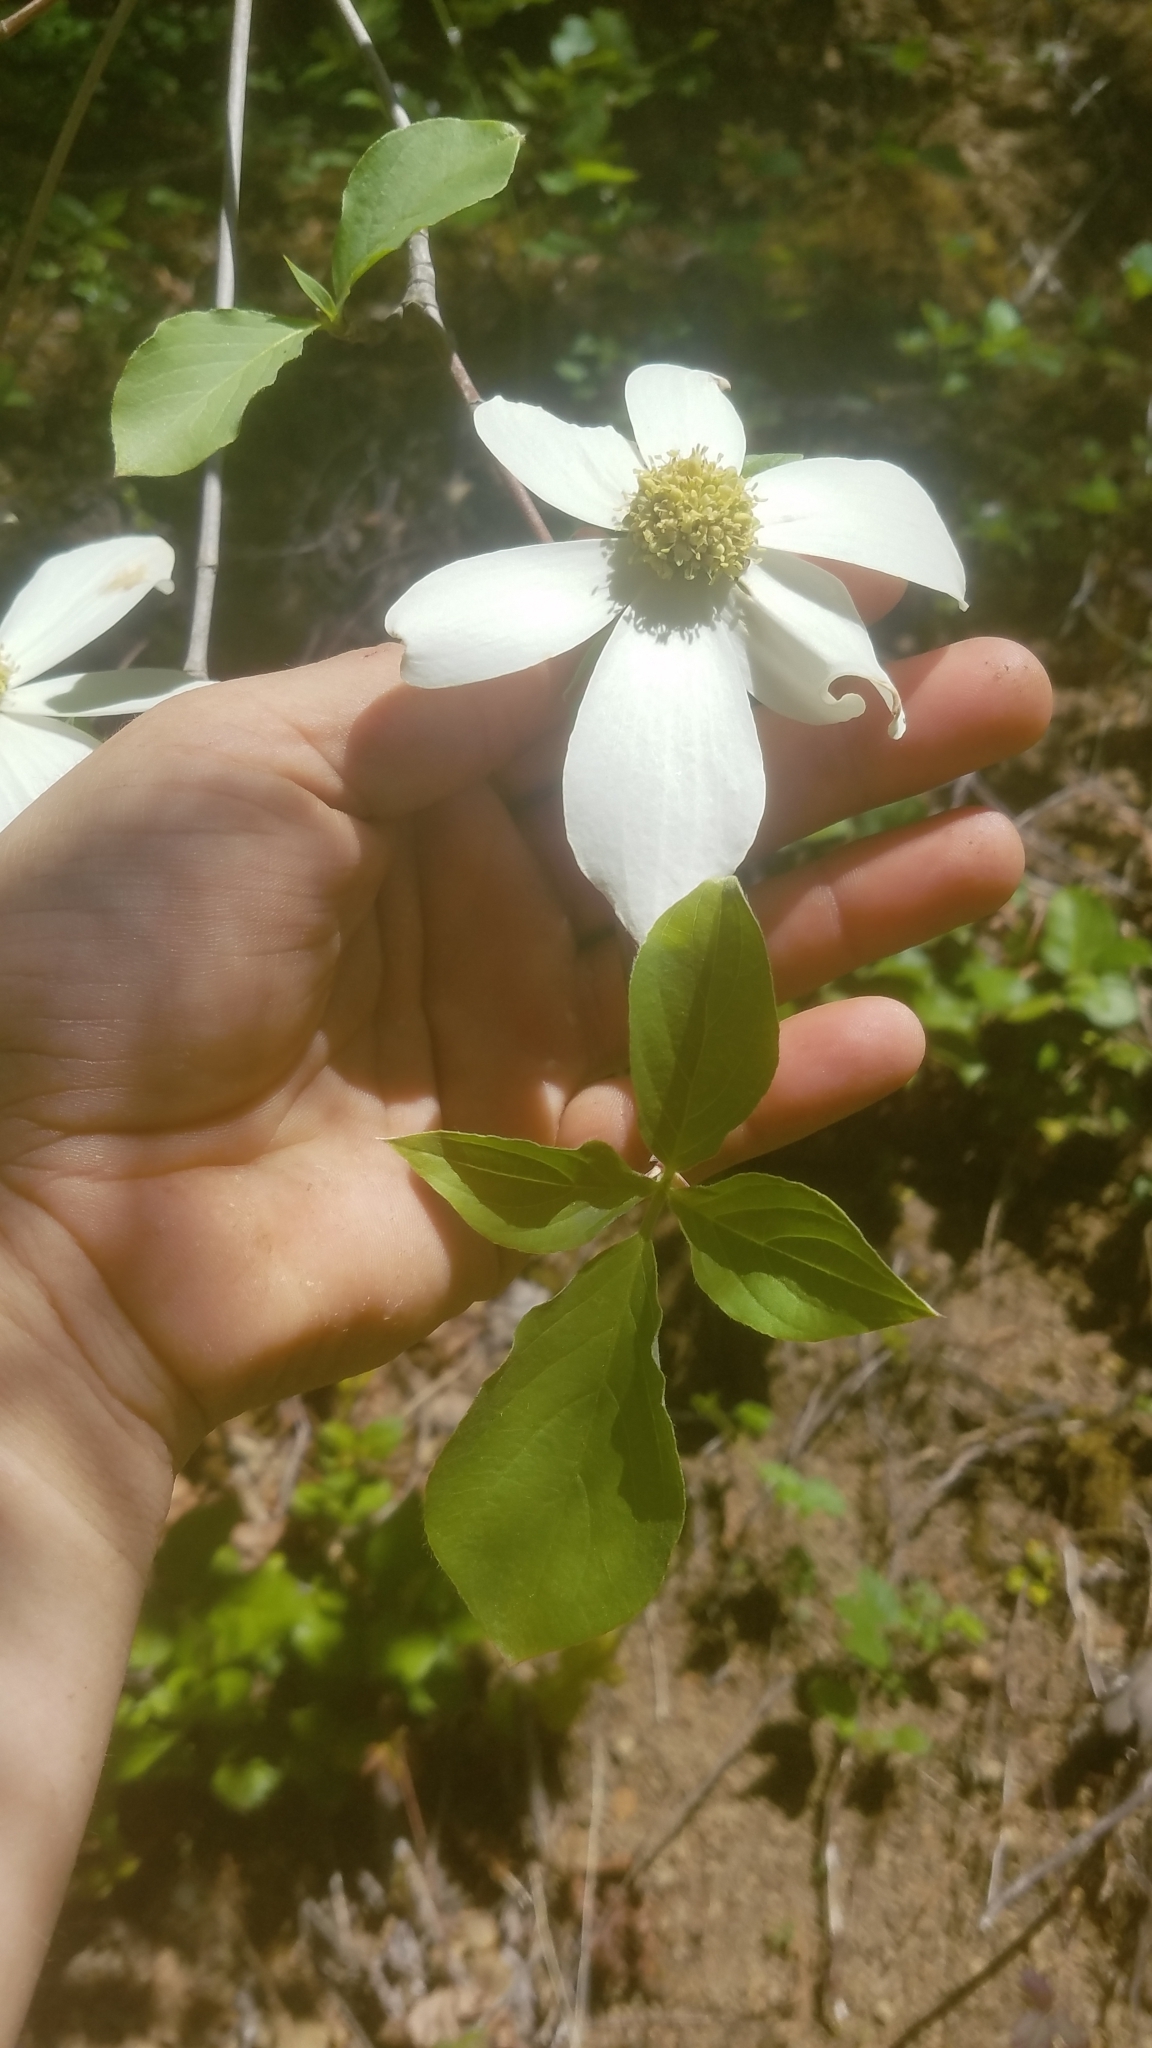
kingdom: Plantae
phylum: Tracheophyta
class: Magnoliopsida
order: Cornales
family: Cornaceae
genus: Cornus
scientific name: Cornus nuttallii
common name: Pacific dogwood
